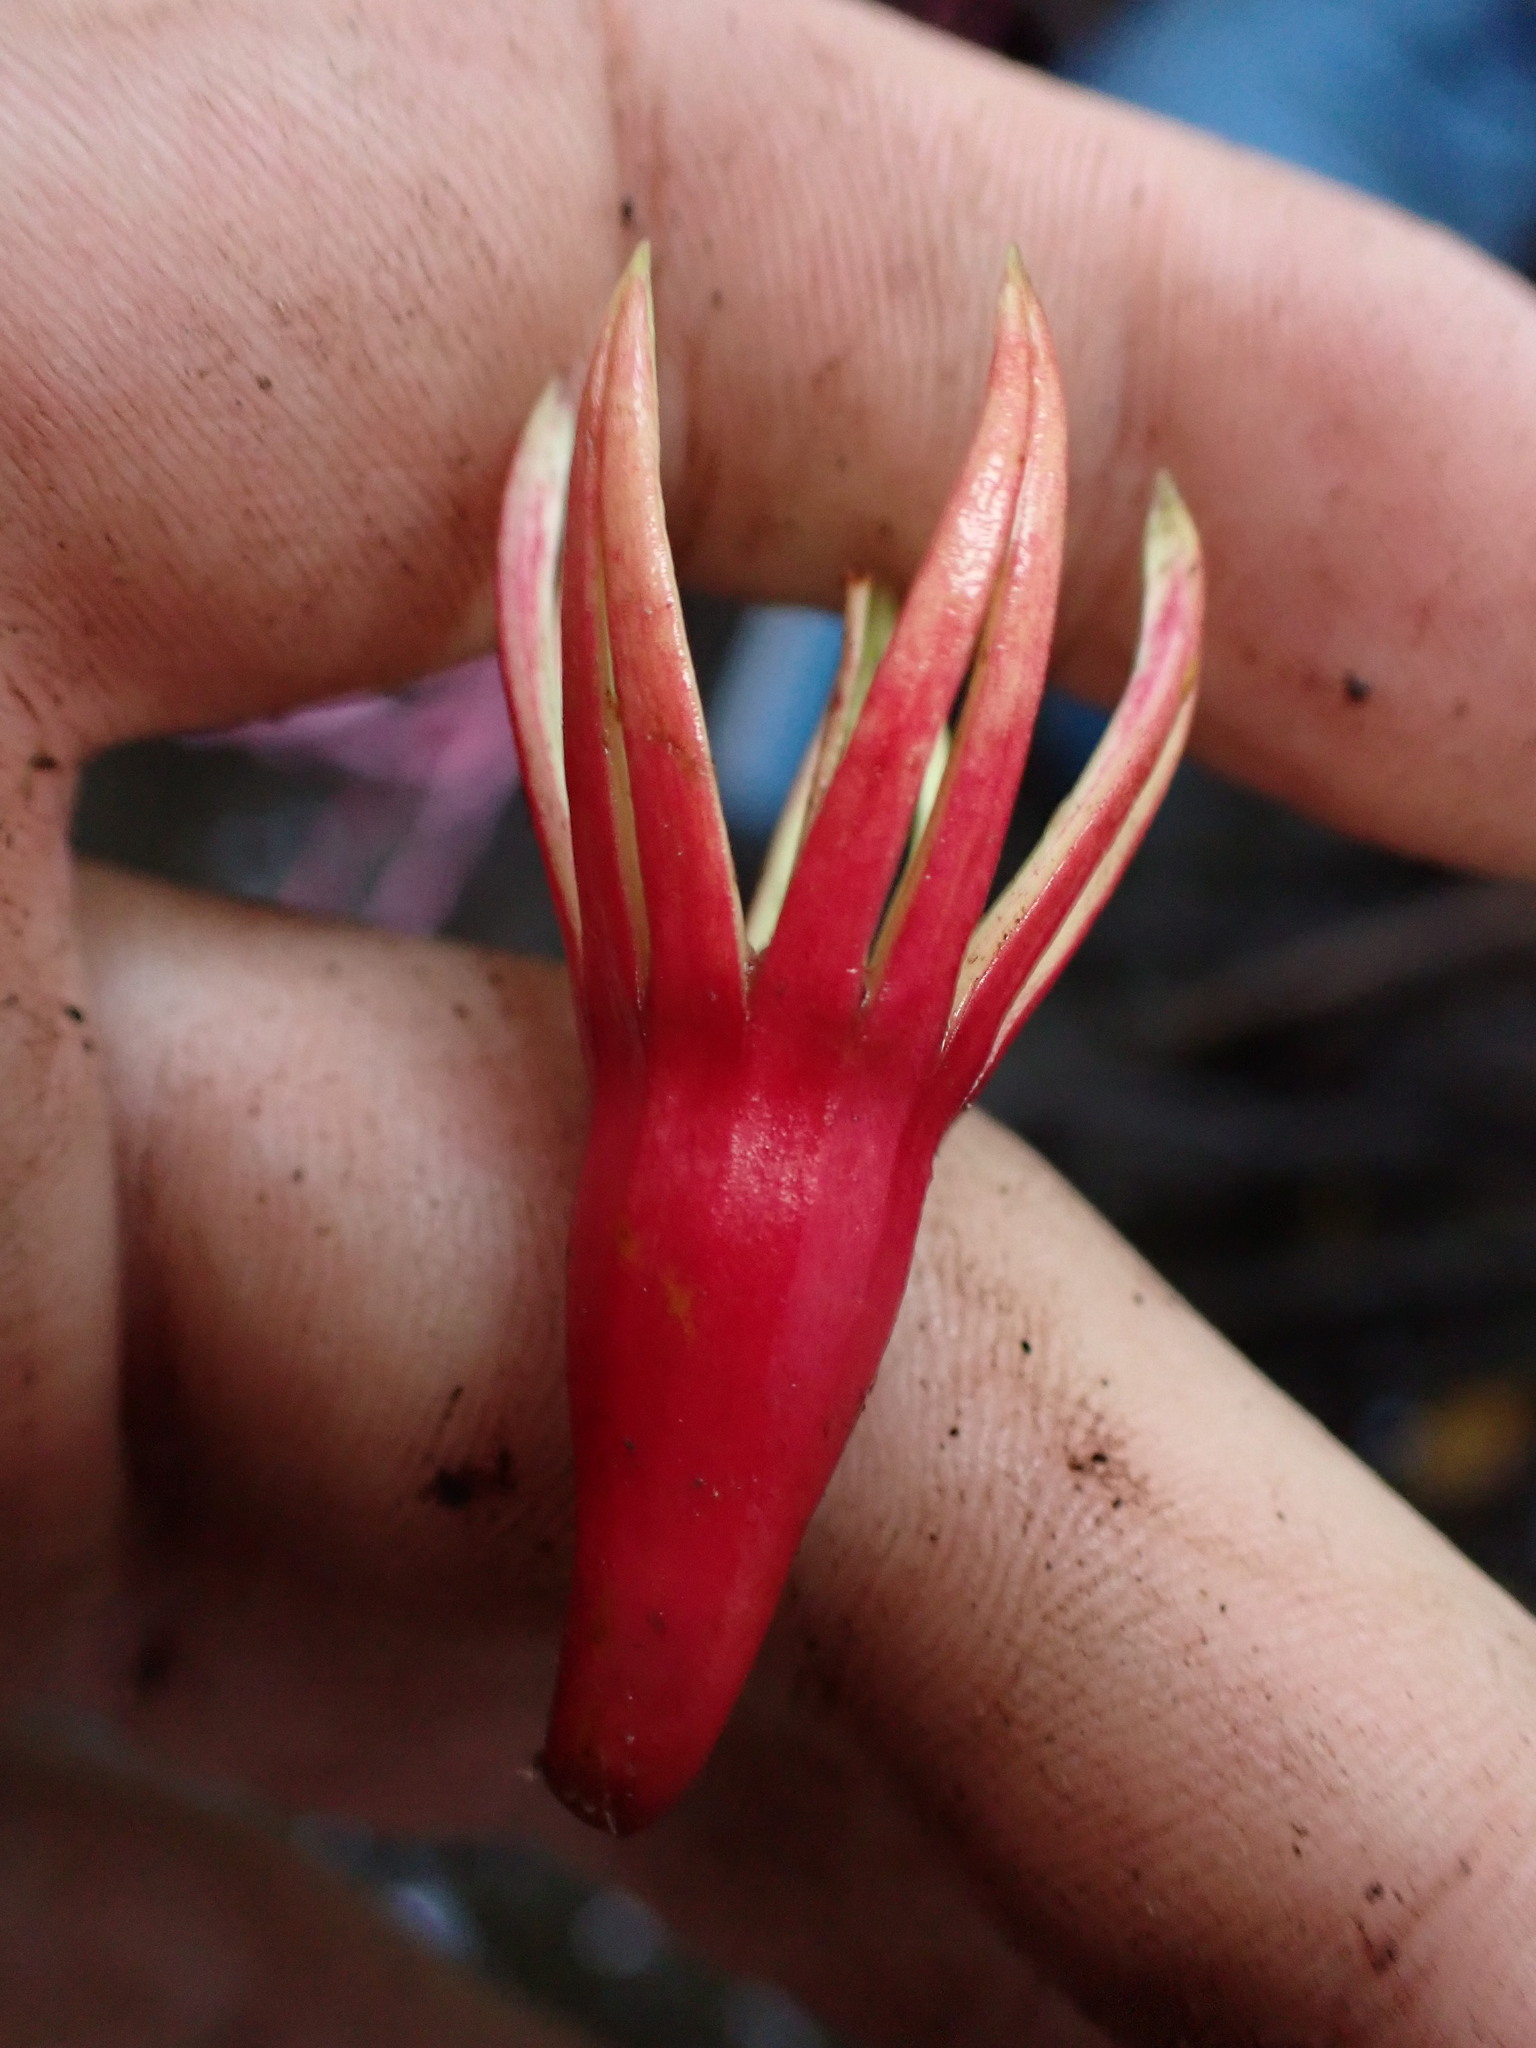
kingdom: Plantae
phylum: Tracheophyta
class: Magnoliopsida
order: Malpighiales
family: Rhizophoraceae
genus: Bruguiera
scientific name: Bruguiera gymnorhiza
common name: Oriental mangrove
